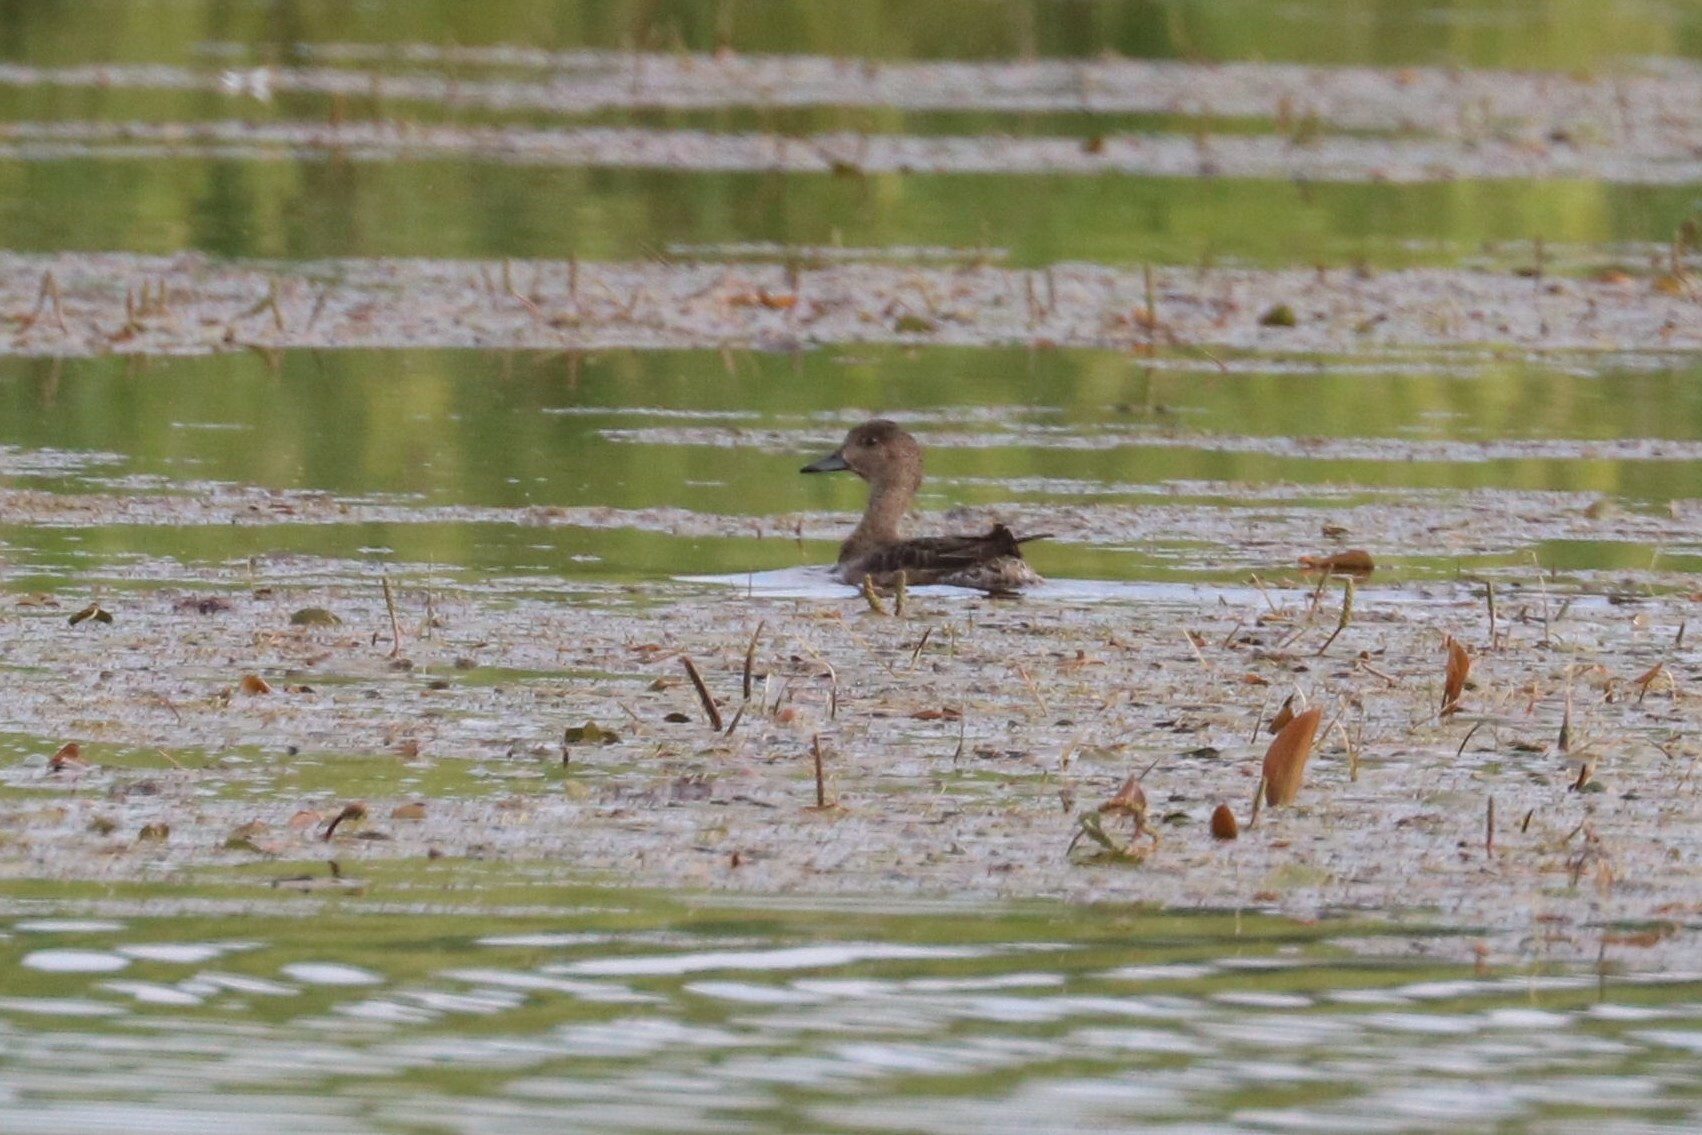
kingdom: Animalia
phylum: Chordata
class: Aves
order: Anseriformes
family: Anatidae
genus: Mareca
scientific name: Mareca penelope
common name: Eurasian wigeon
